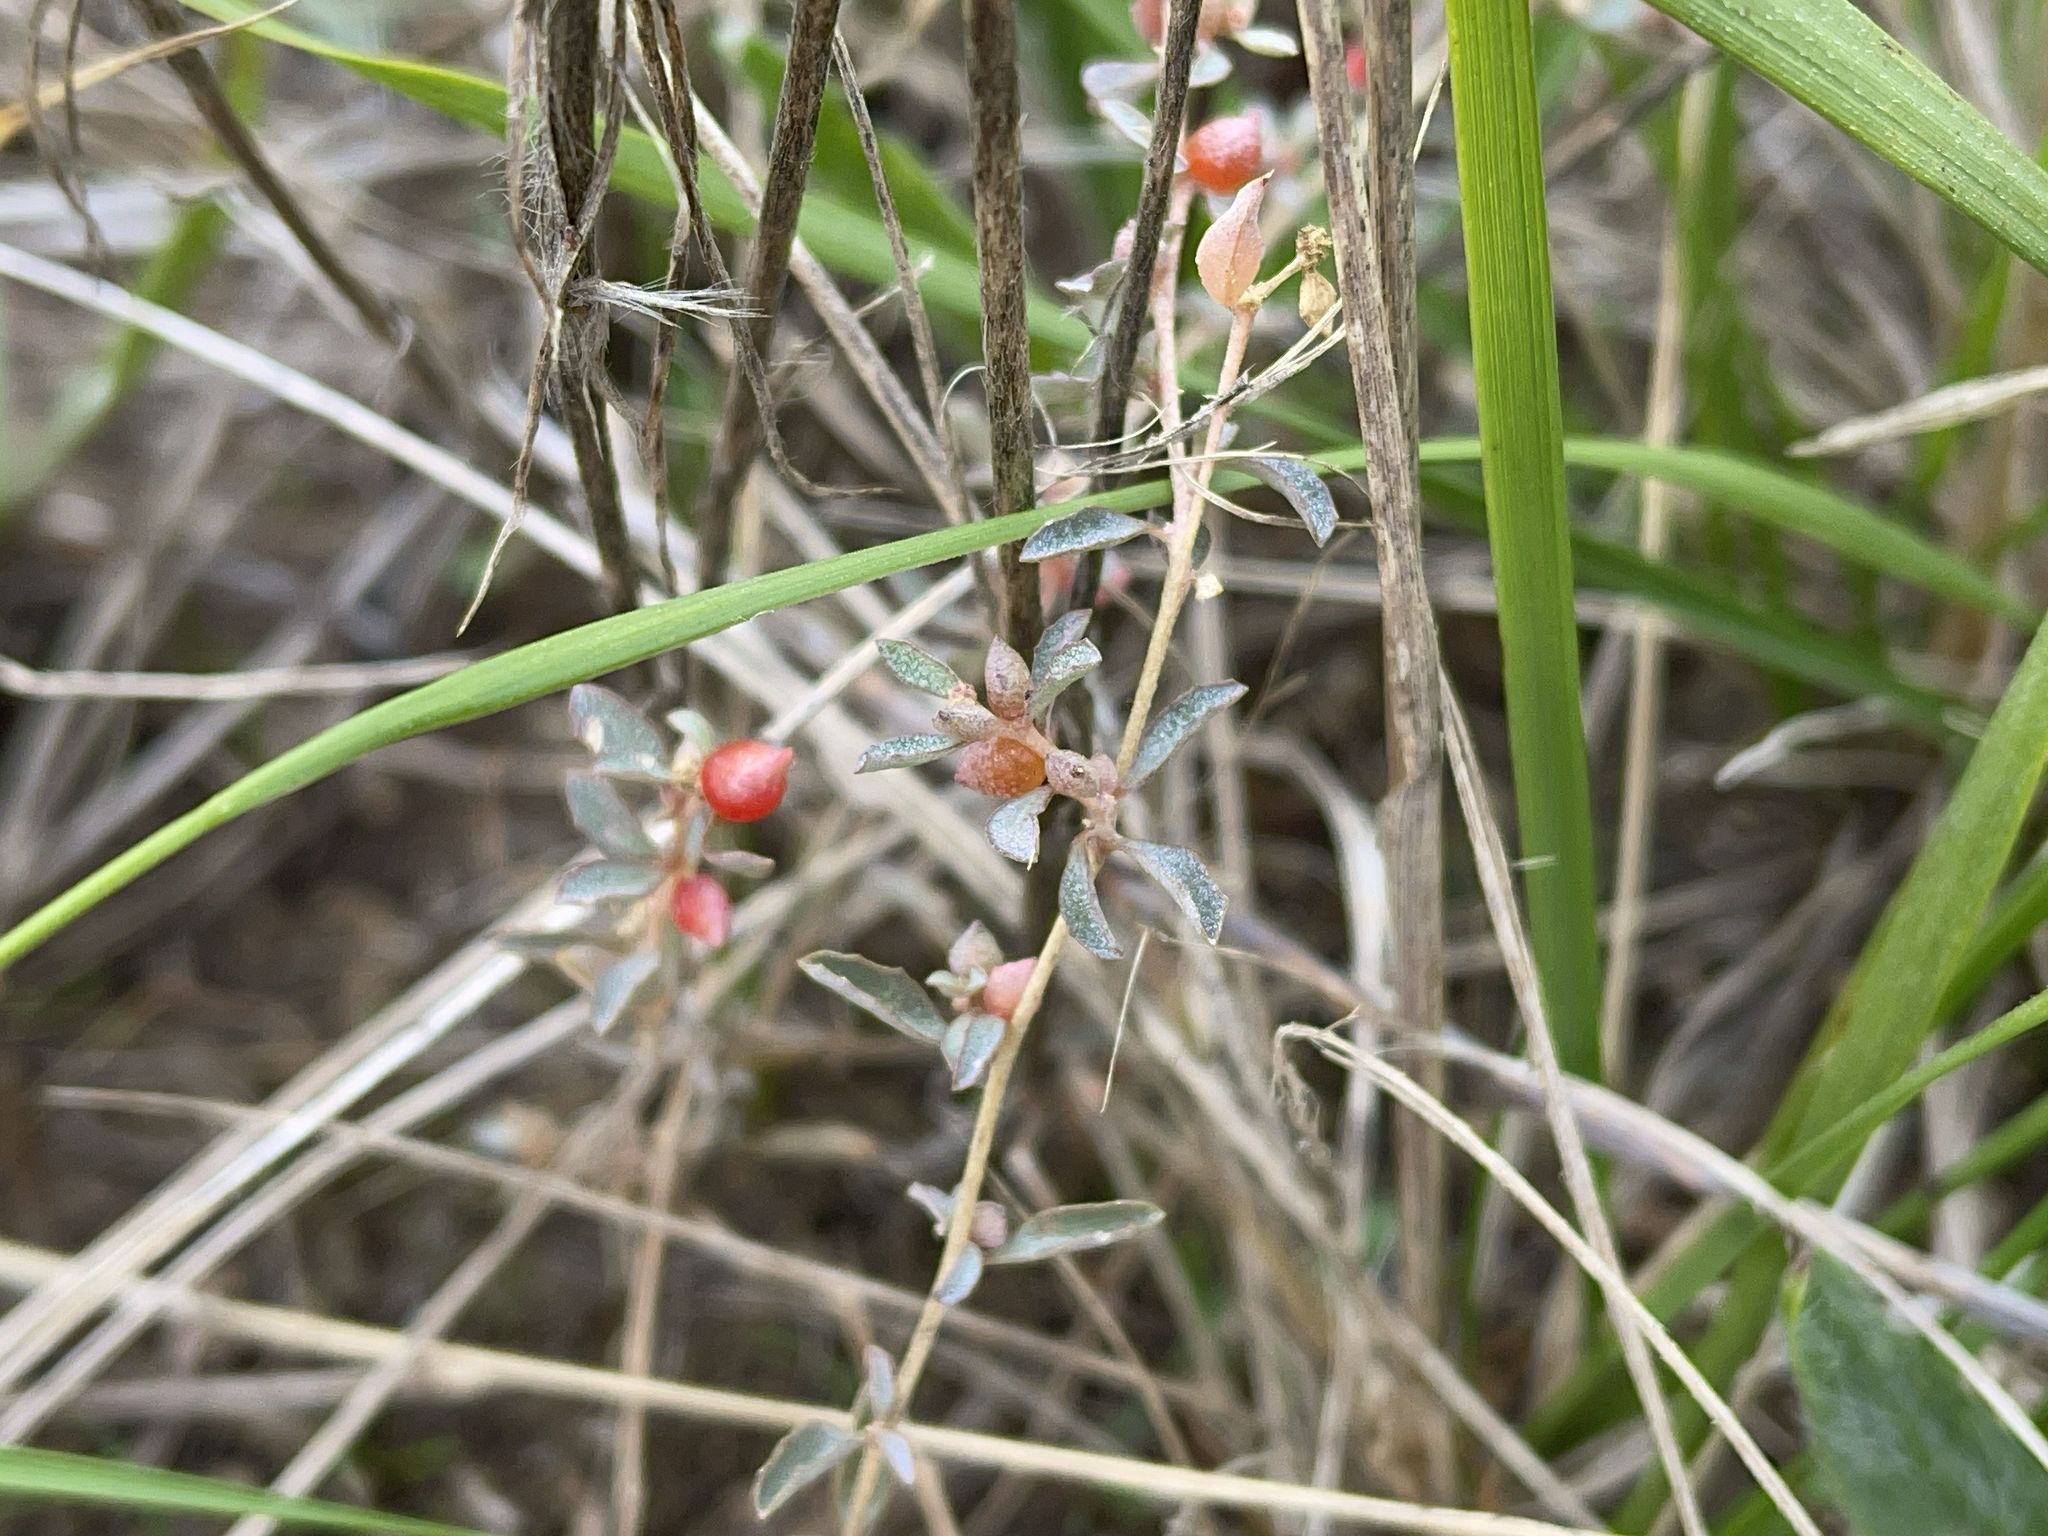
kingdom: Plantae
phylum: Tracheophyta
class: Magnoliopsida
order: Caryophyllales
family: Amaranthaceae
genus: Atriplex
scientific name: Atriplex semibaccata
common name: Australian saltbush
